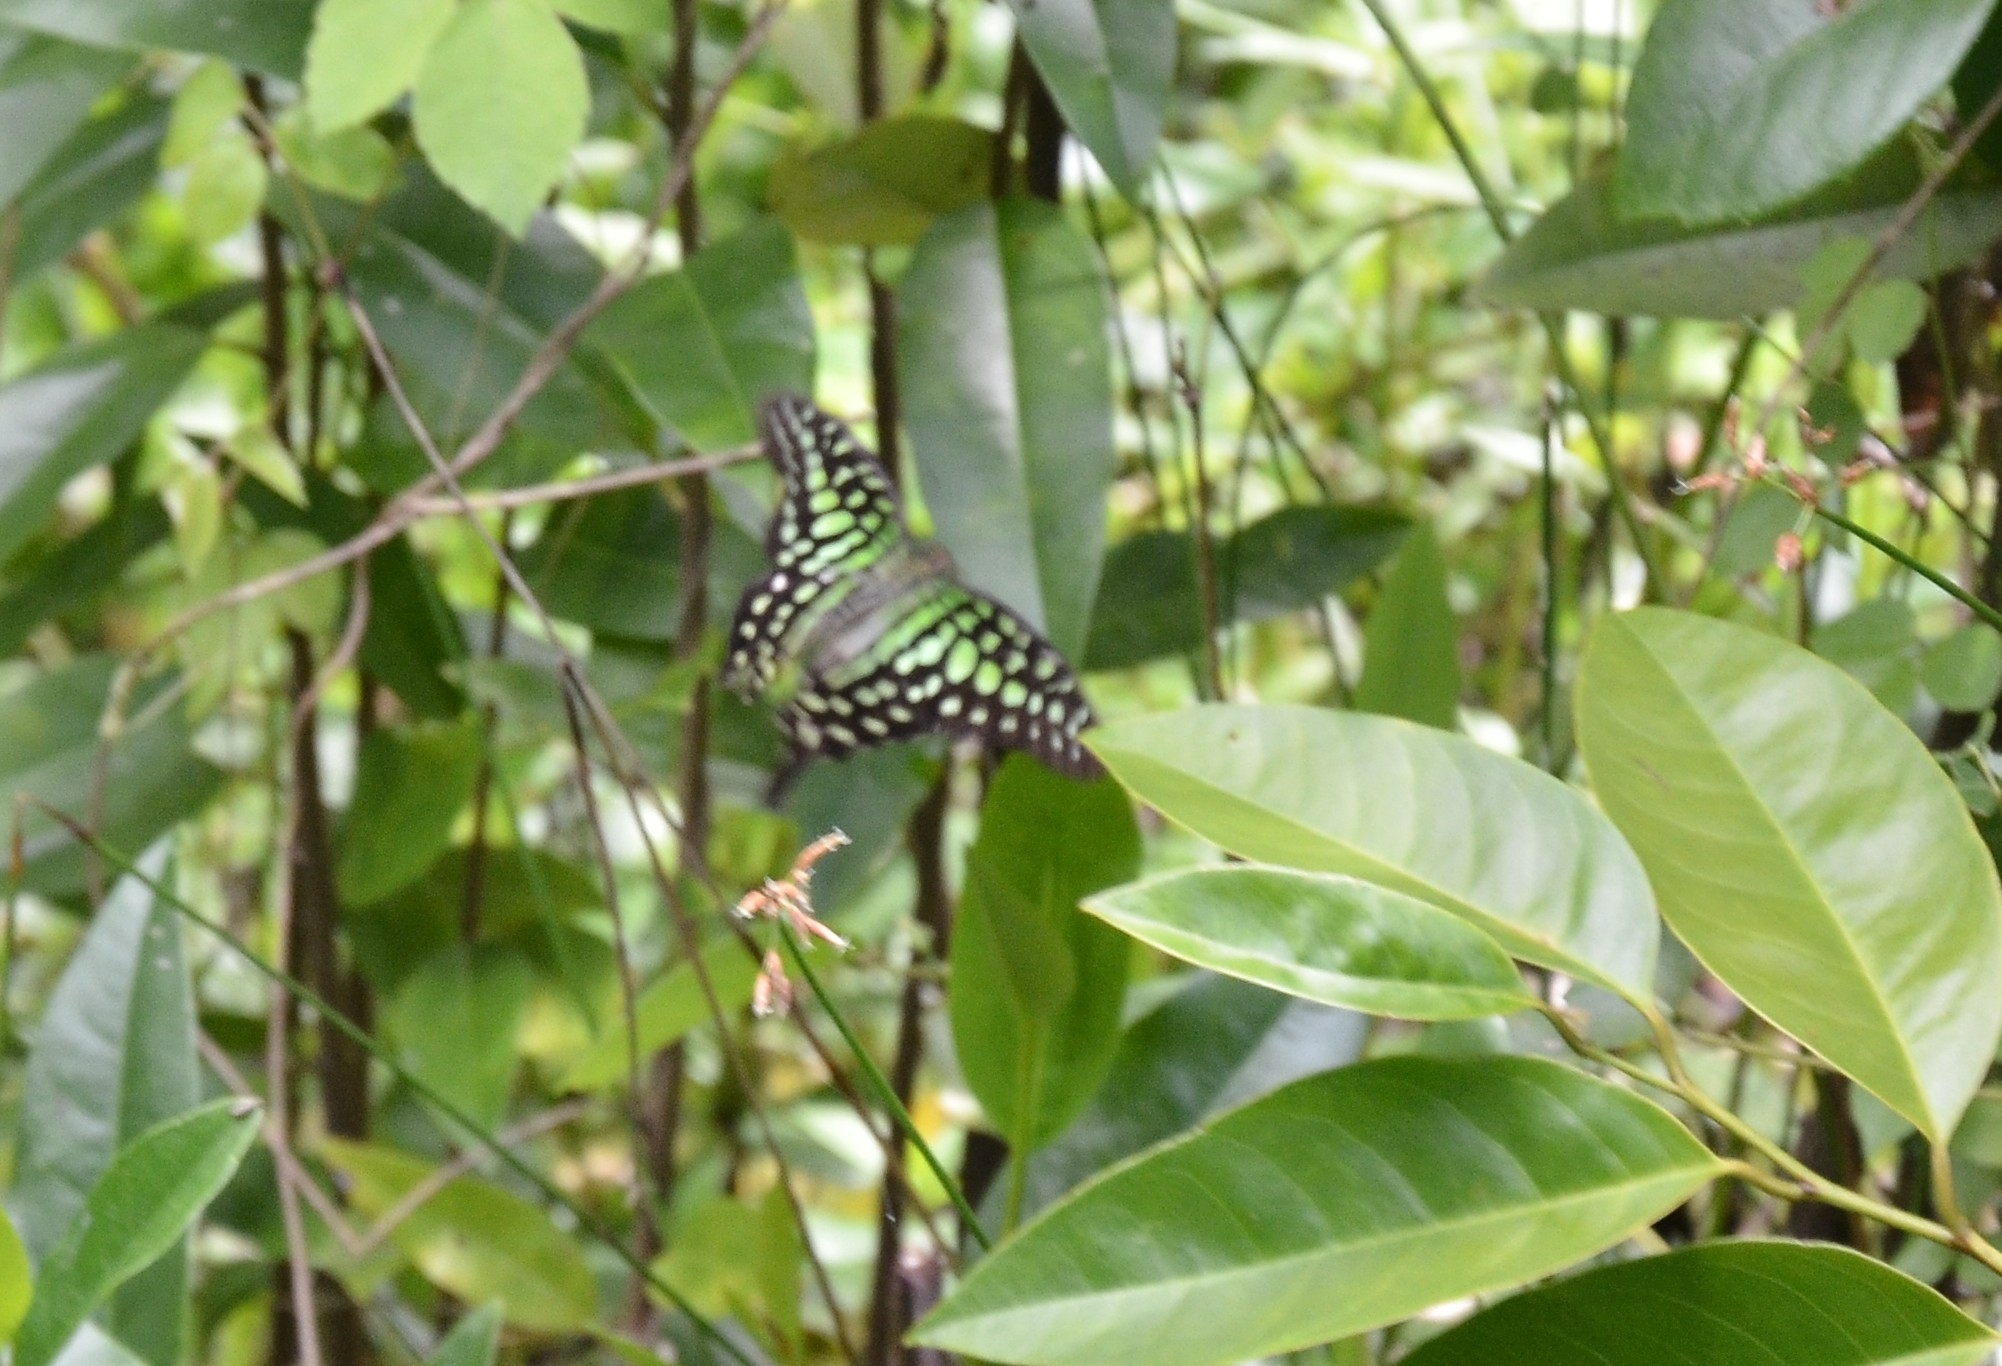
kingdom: Animalia
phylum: Arthropoda
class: Insecta
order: Lepidoptera
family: Papilionidae
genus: Graphium
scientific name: Graphium agamemnon
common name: Tailed jay
